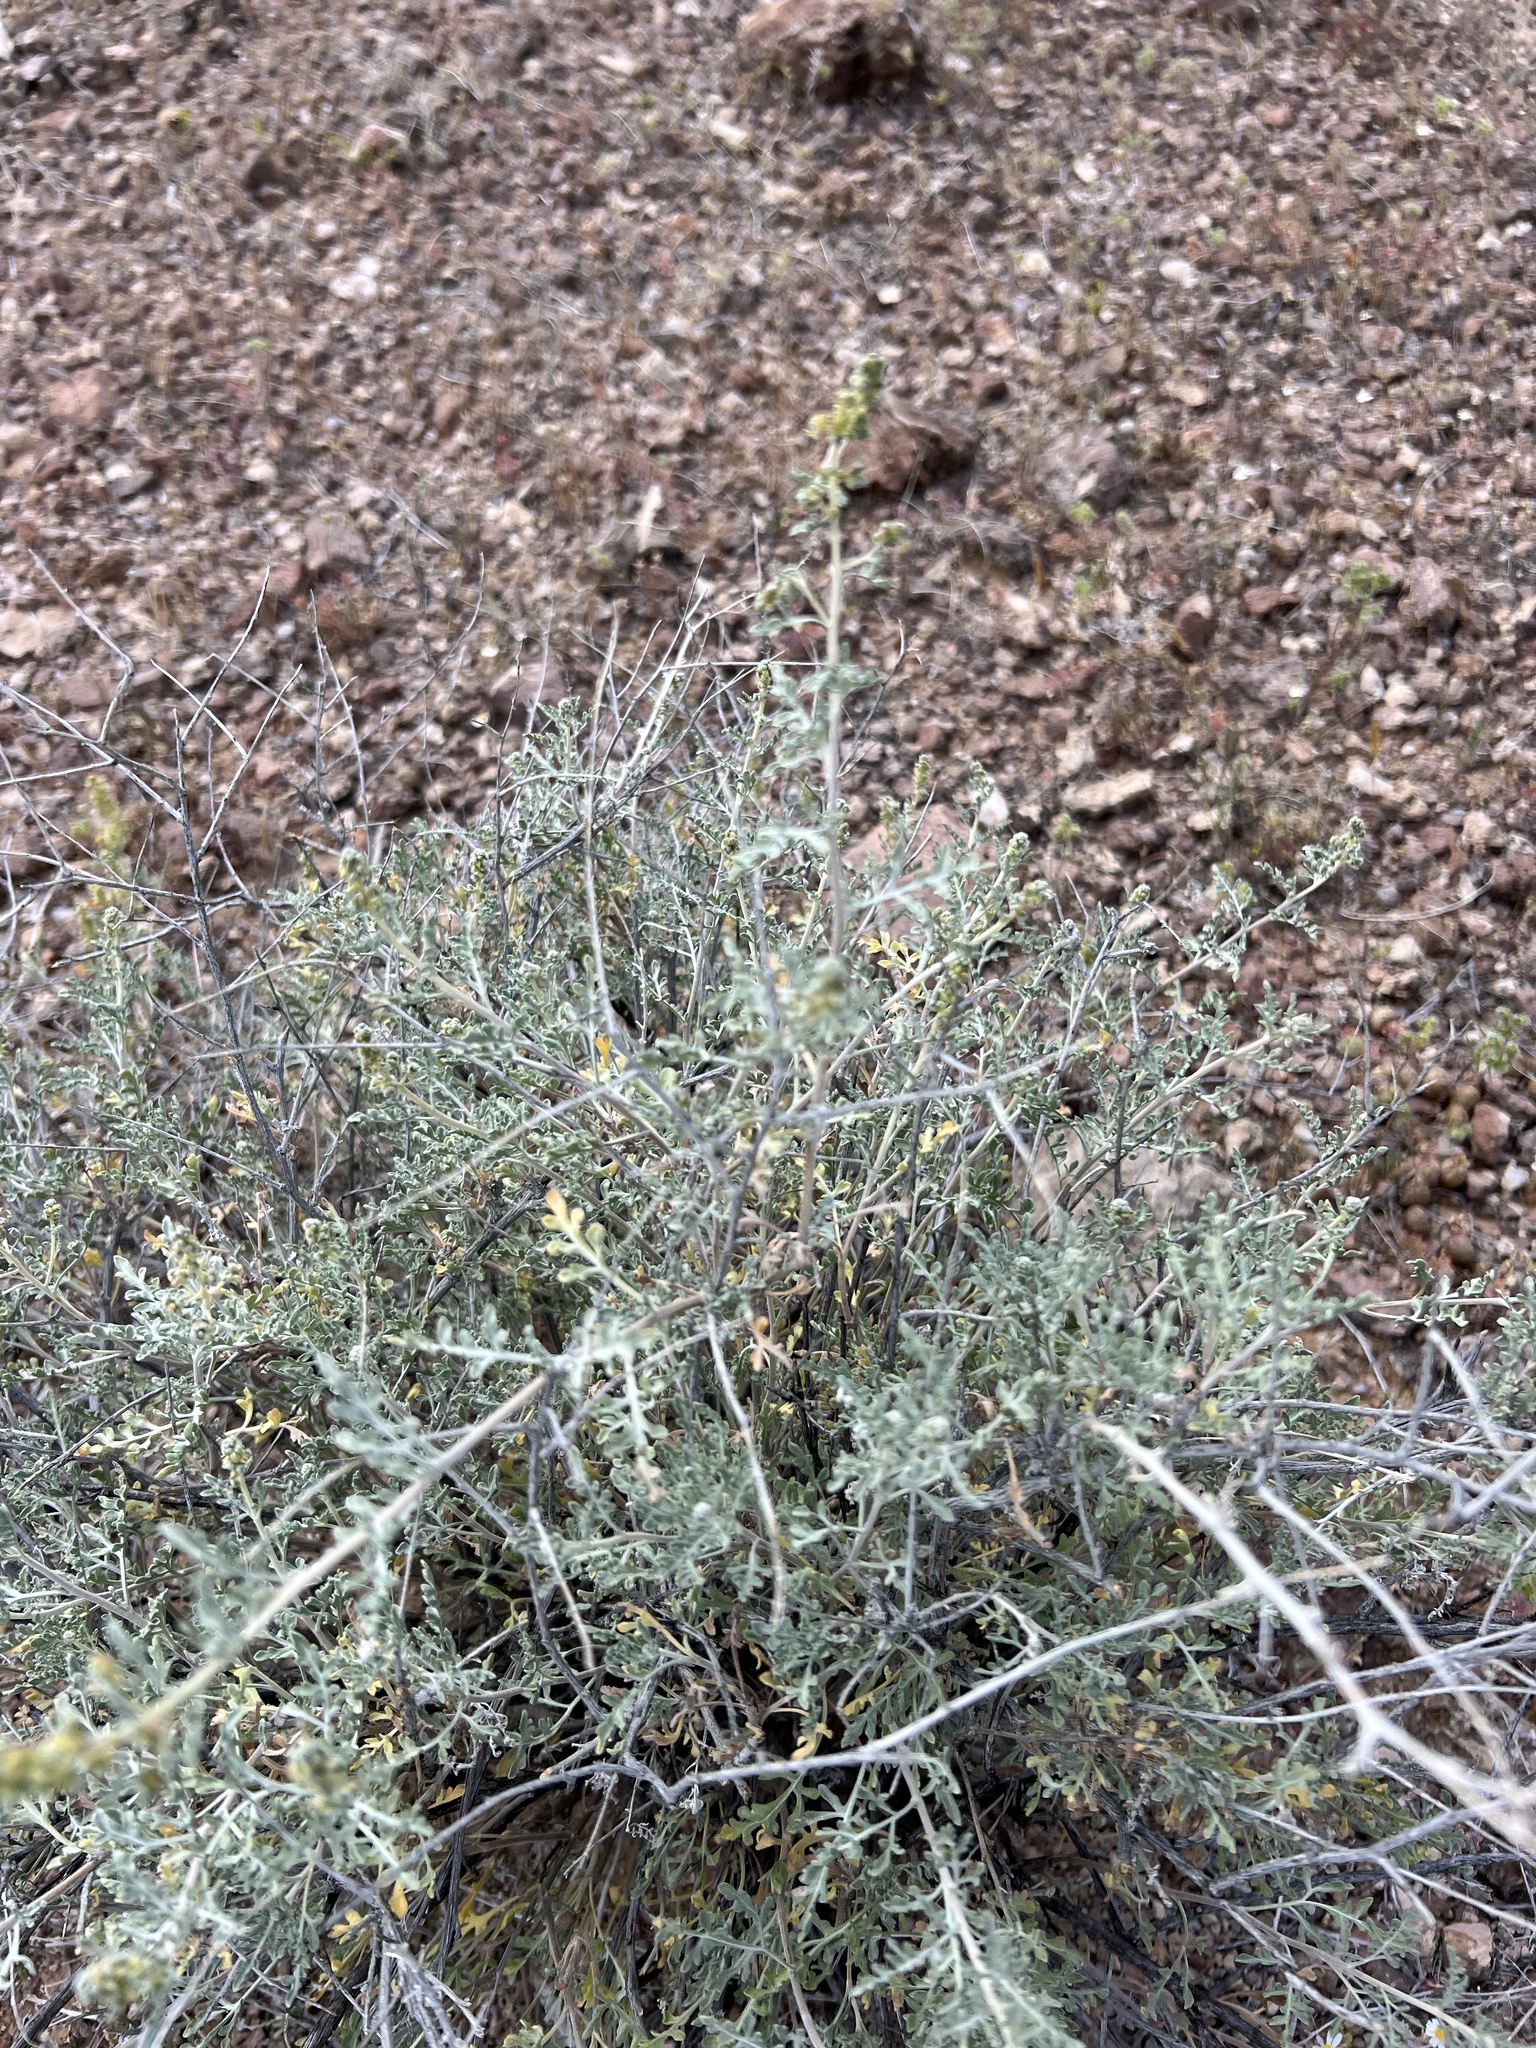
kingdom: Plantae
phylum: Tracheophyta
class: Magnoliopsida
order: Asterales
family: Asteraceae
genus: Ambrosia
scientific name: Ambrosia dumosa
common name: Bur-sage
